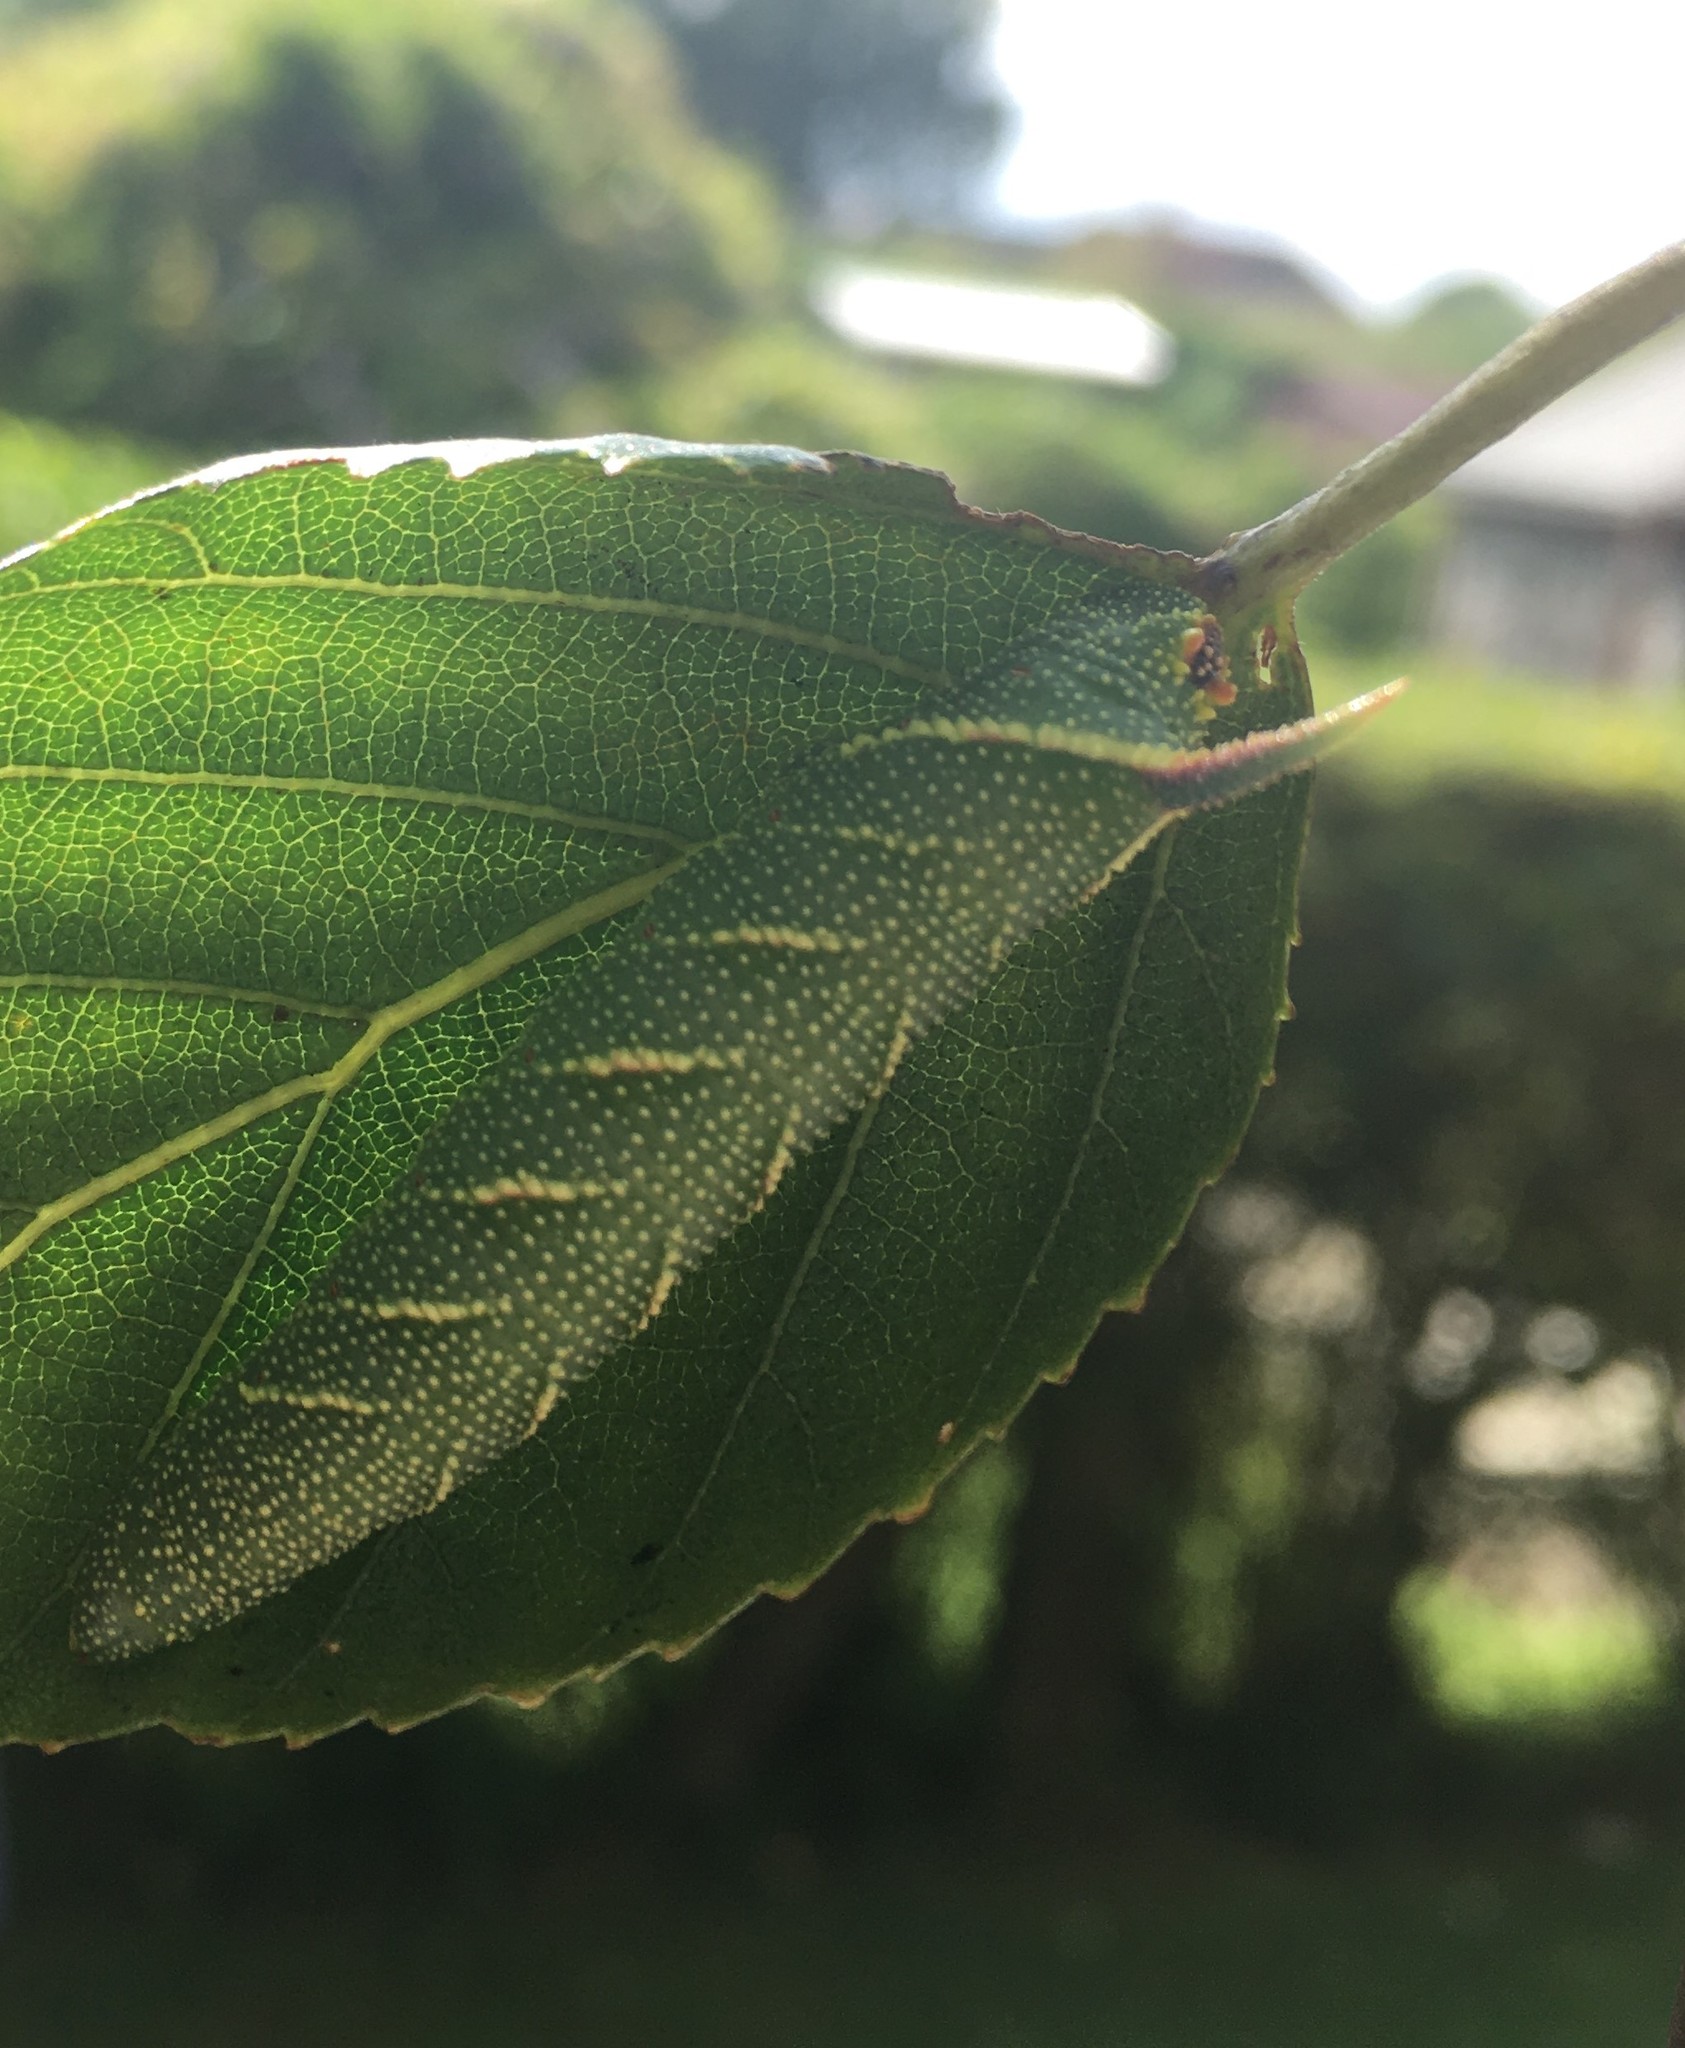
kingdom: Animalia
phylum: Arthropoda
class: Insecta
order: Lepidoptera
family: Sphingidae
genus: Mimas
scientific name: Mimas tiliae
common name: Lime hawk-moth
